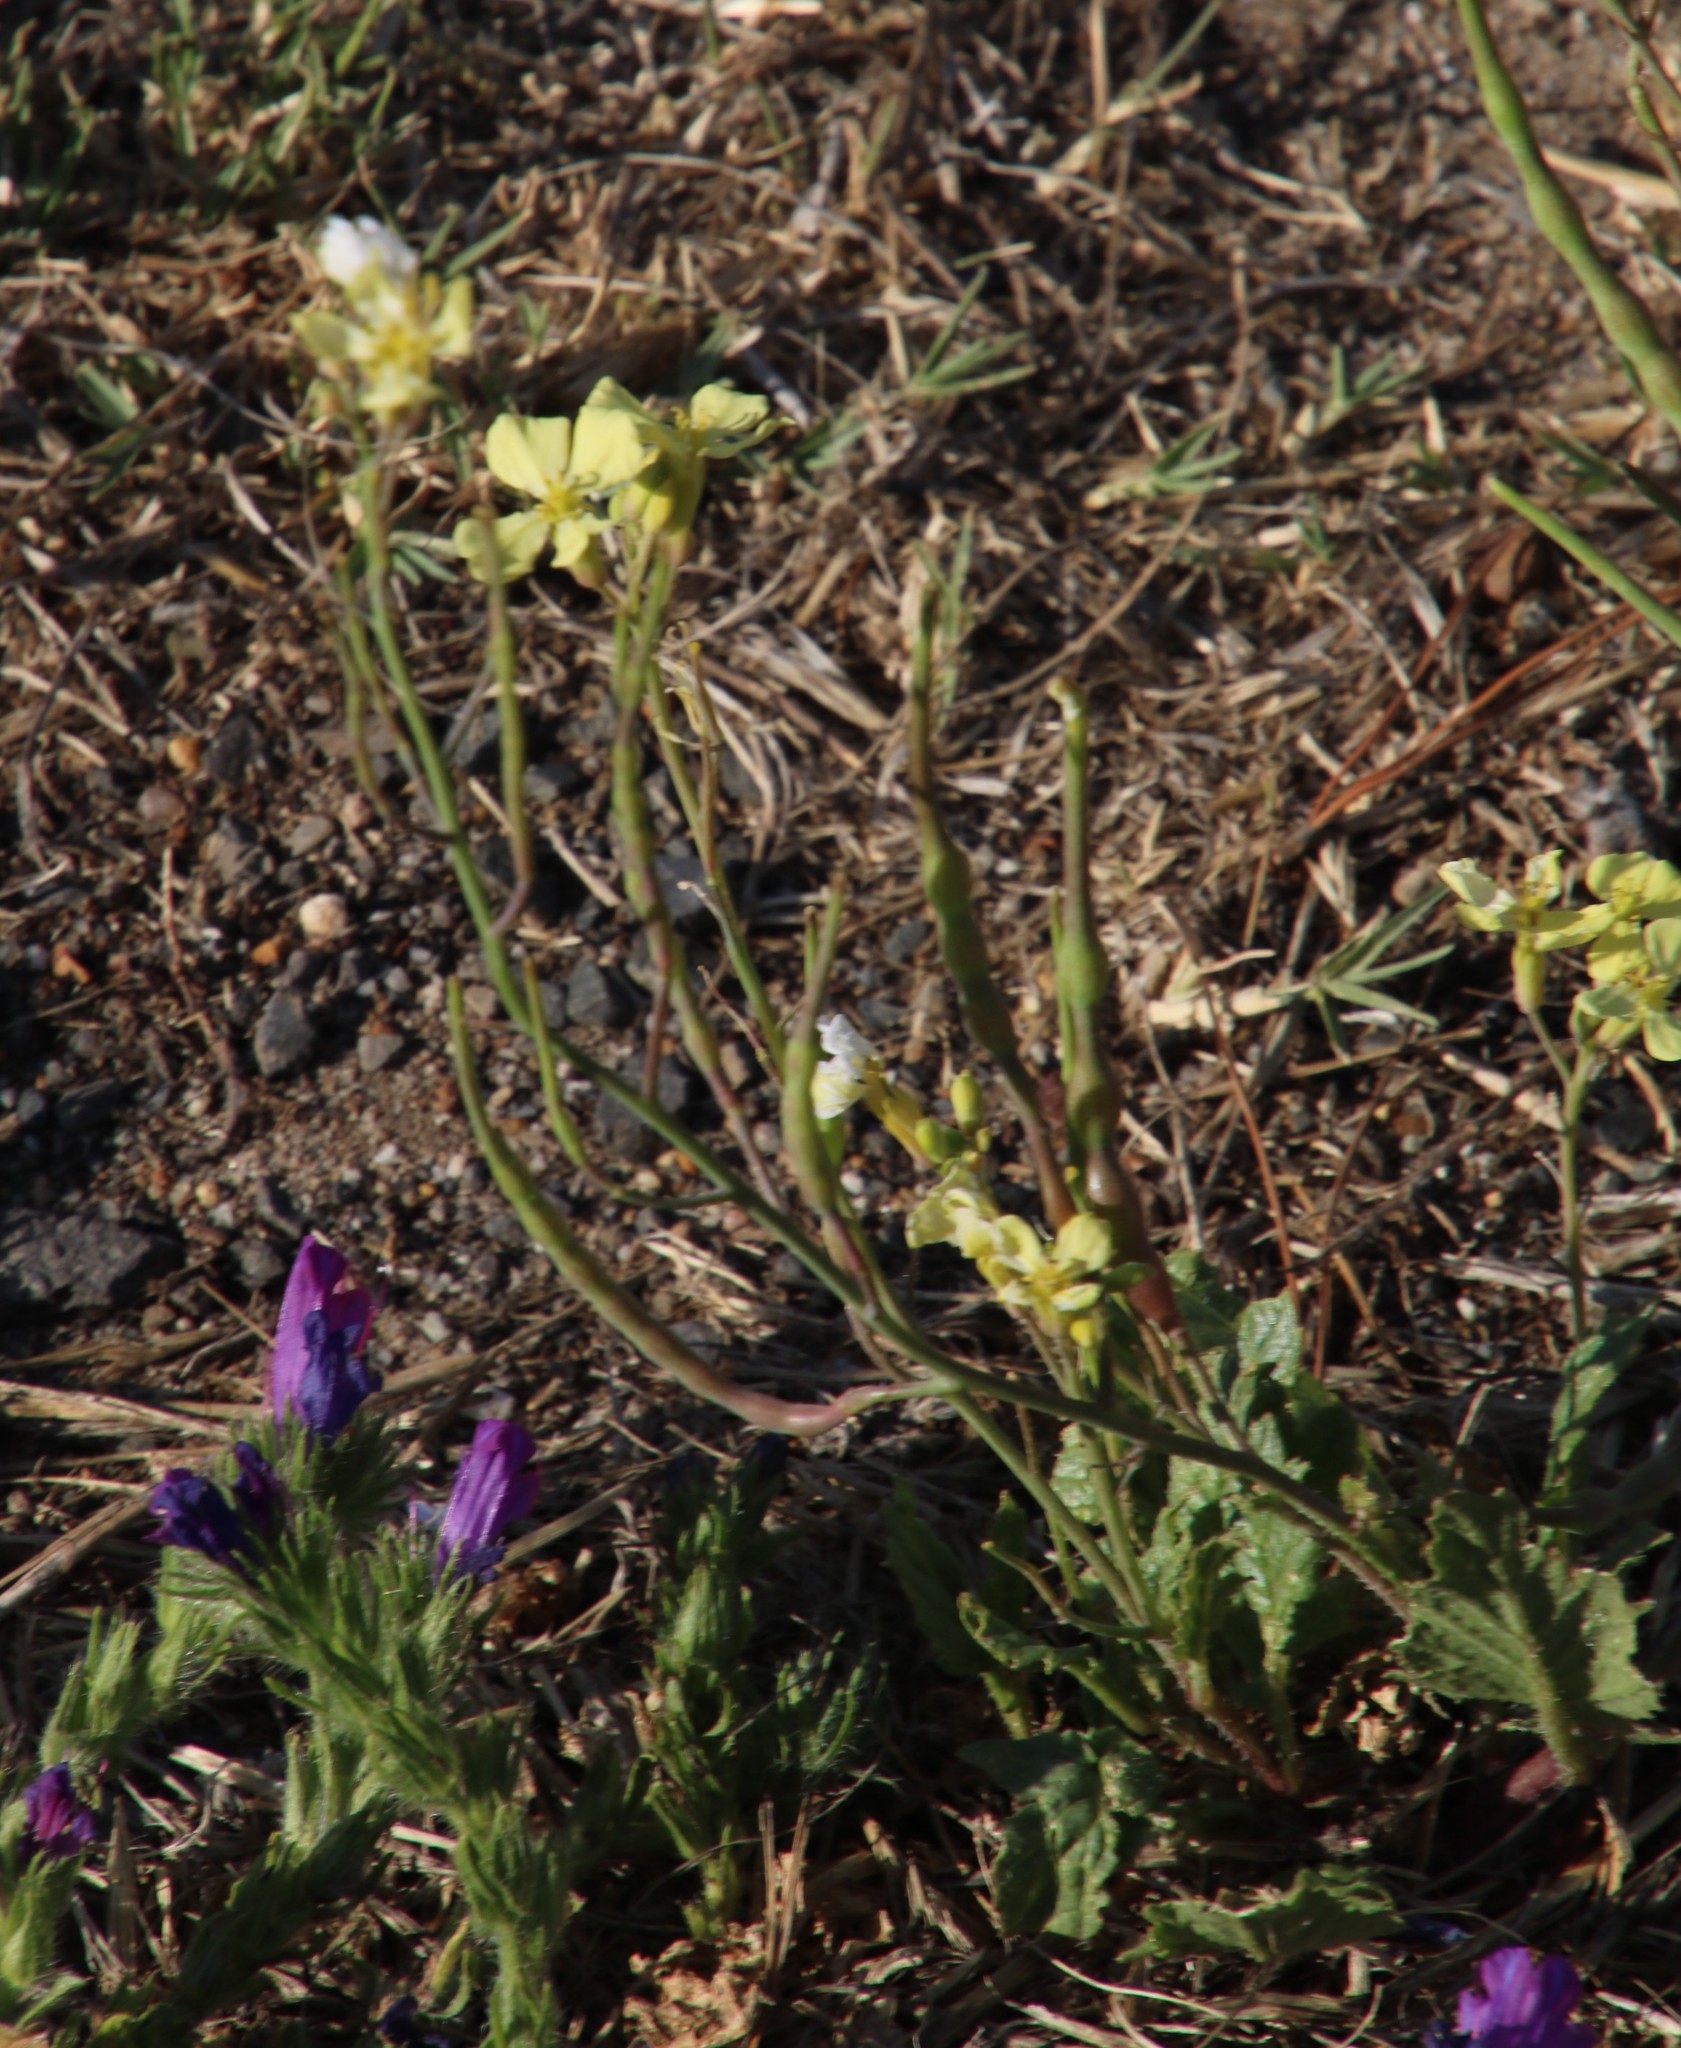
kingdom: Plantae
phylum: Tracheophyta
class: Magnoliopsida
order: Brassicales
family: Brassicaceae
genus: Raphanus
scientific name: Raphanus raphanistrum
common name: Wild radish
